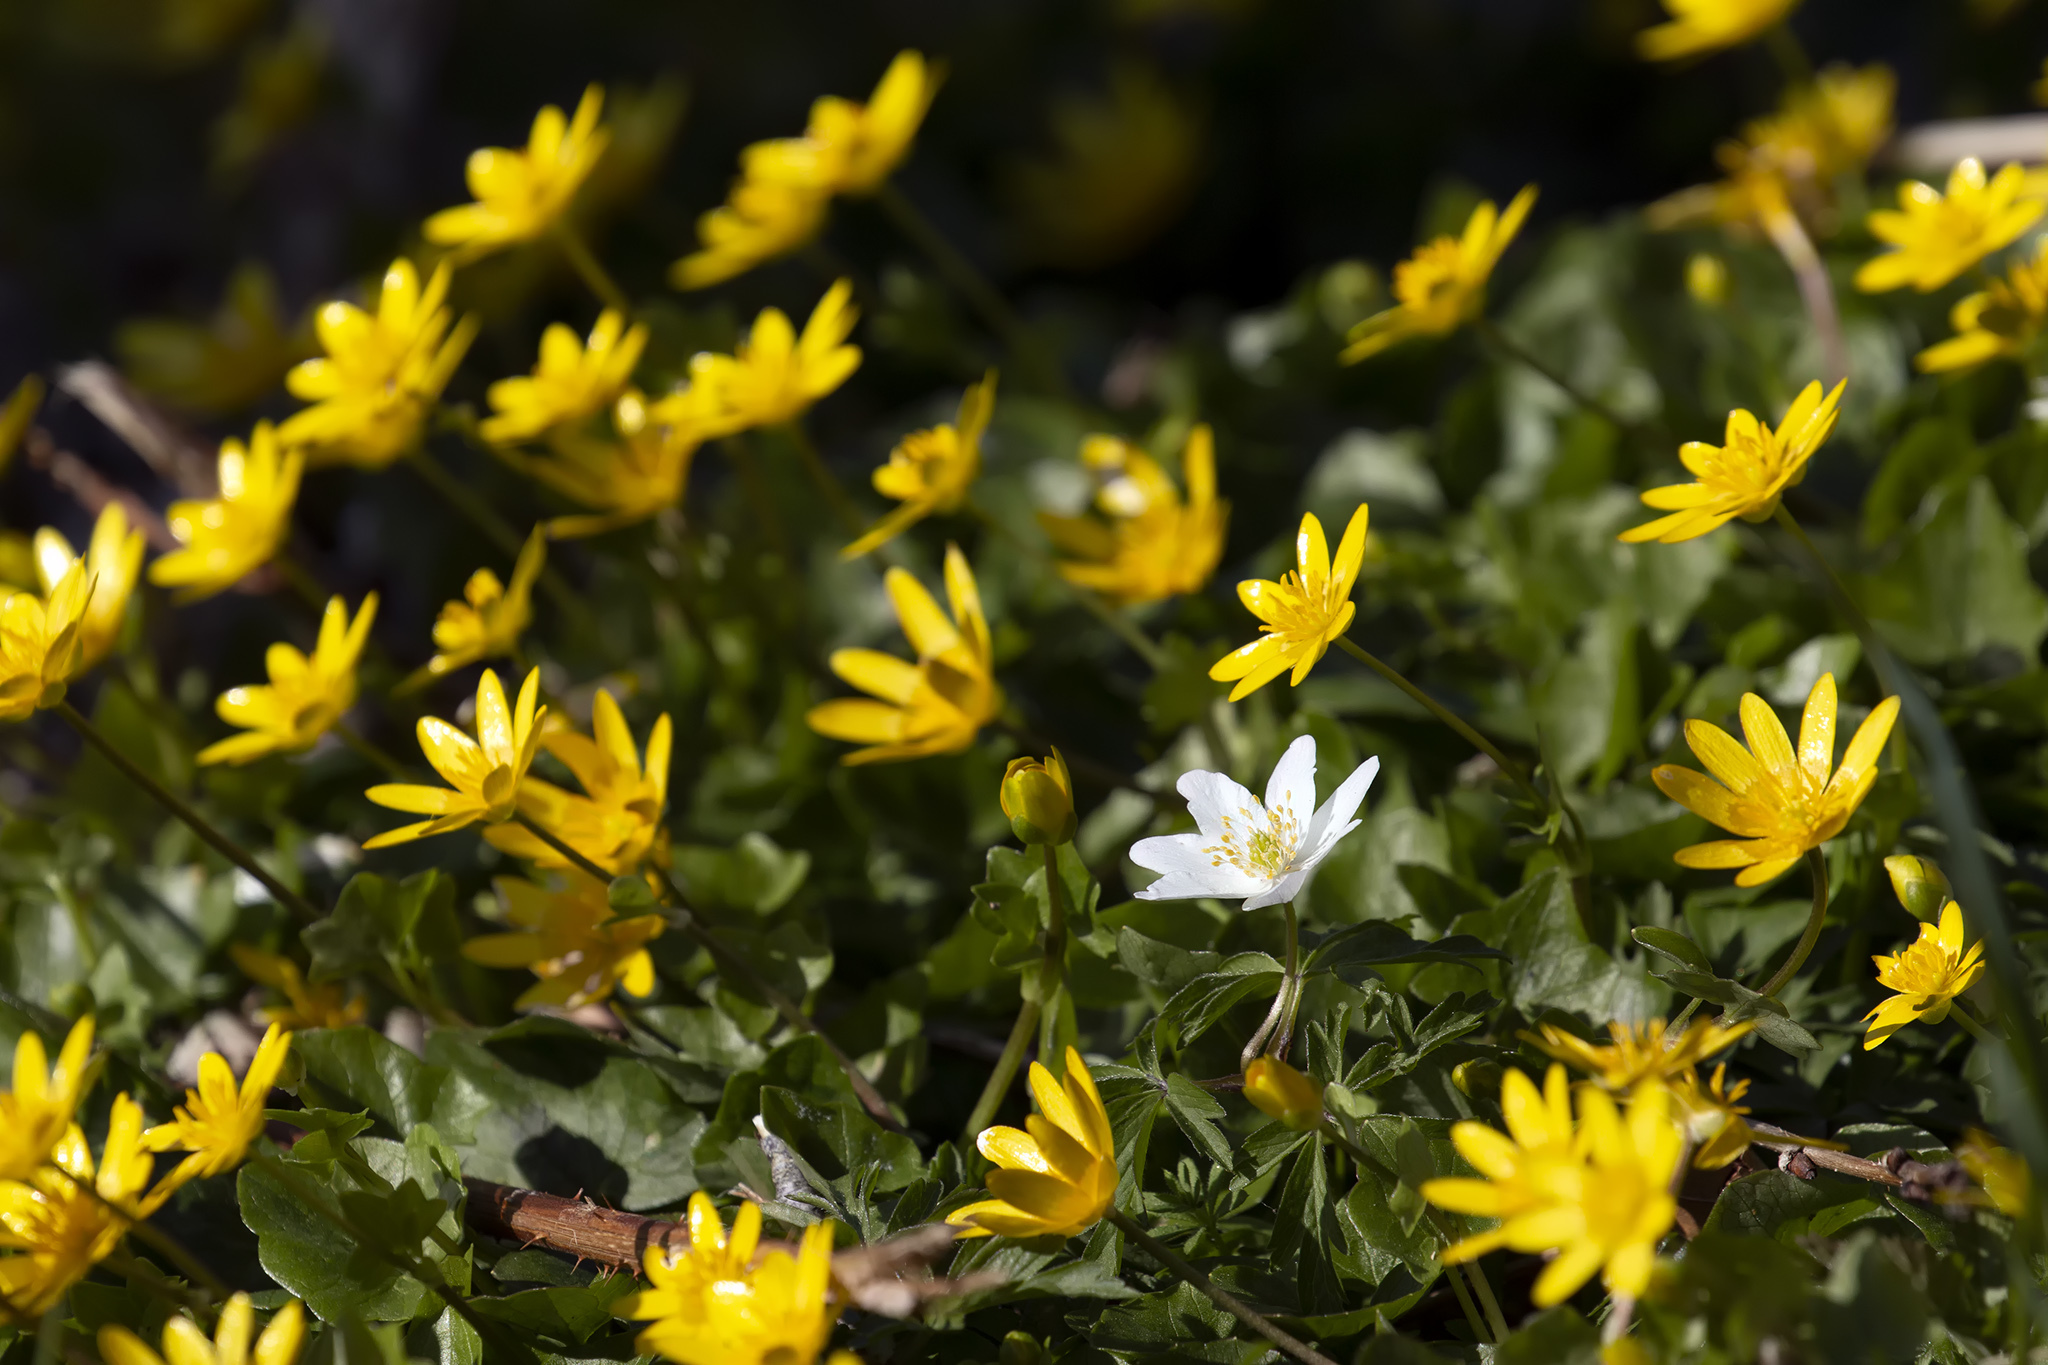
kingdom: Plantae
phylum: Tracheophyta
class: Magnoliopsida
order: Ranunculales
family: Ranunculaceae
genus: Ficaria
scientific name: Ficaria verna
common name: Lesser celandine
